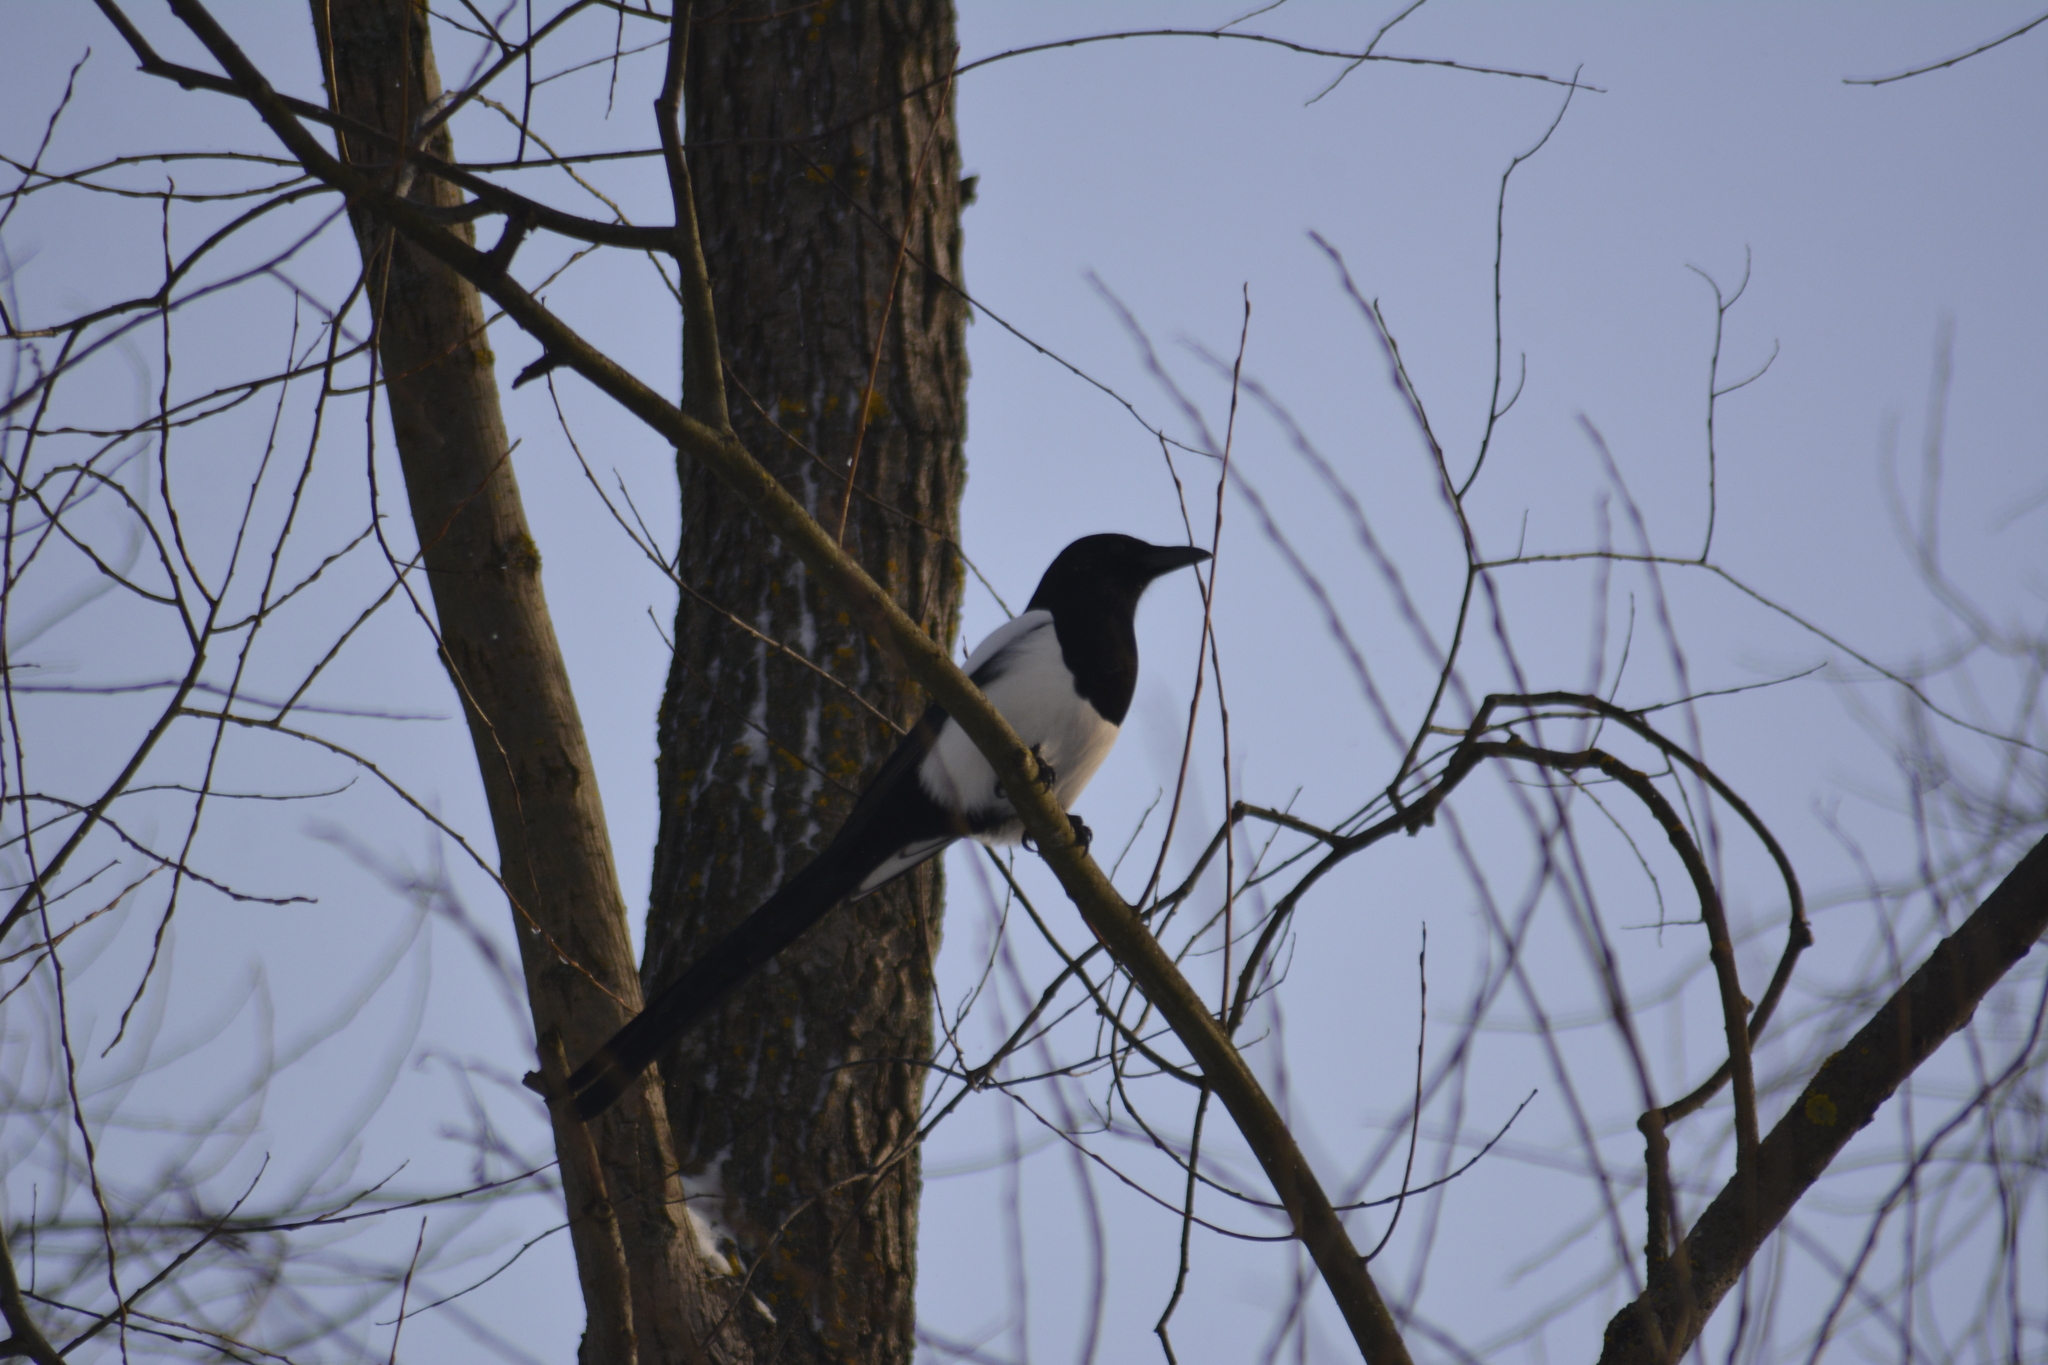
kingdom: Animalia
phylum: Chordata
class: Aves
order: Passeriformes
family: Corvidae
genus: Pica
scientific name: Pica pica
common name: Eurasian magpie
